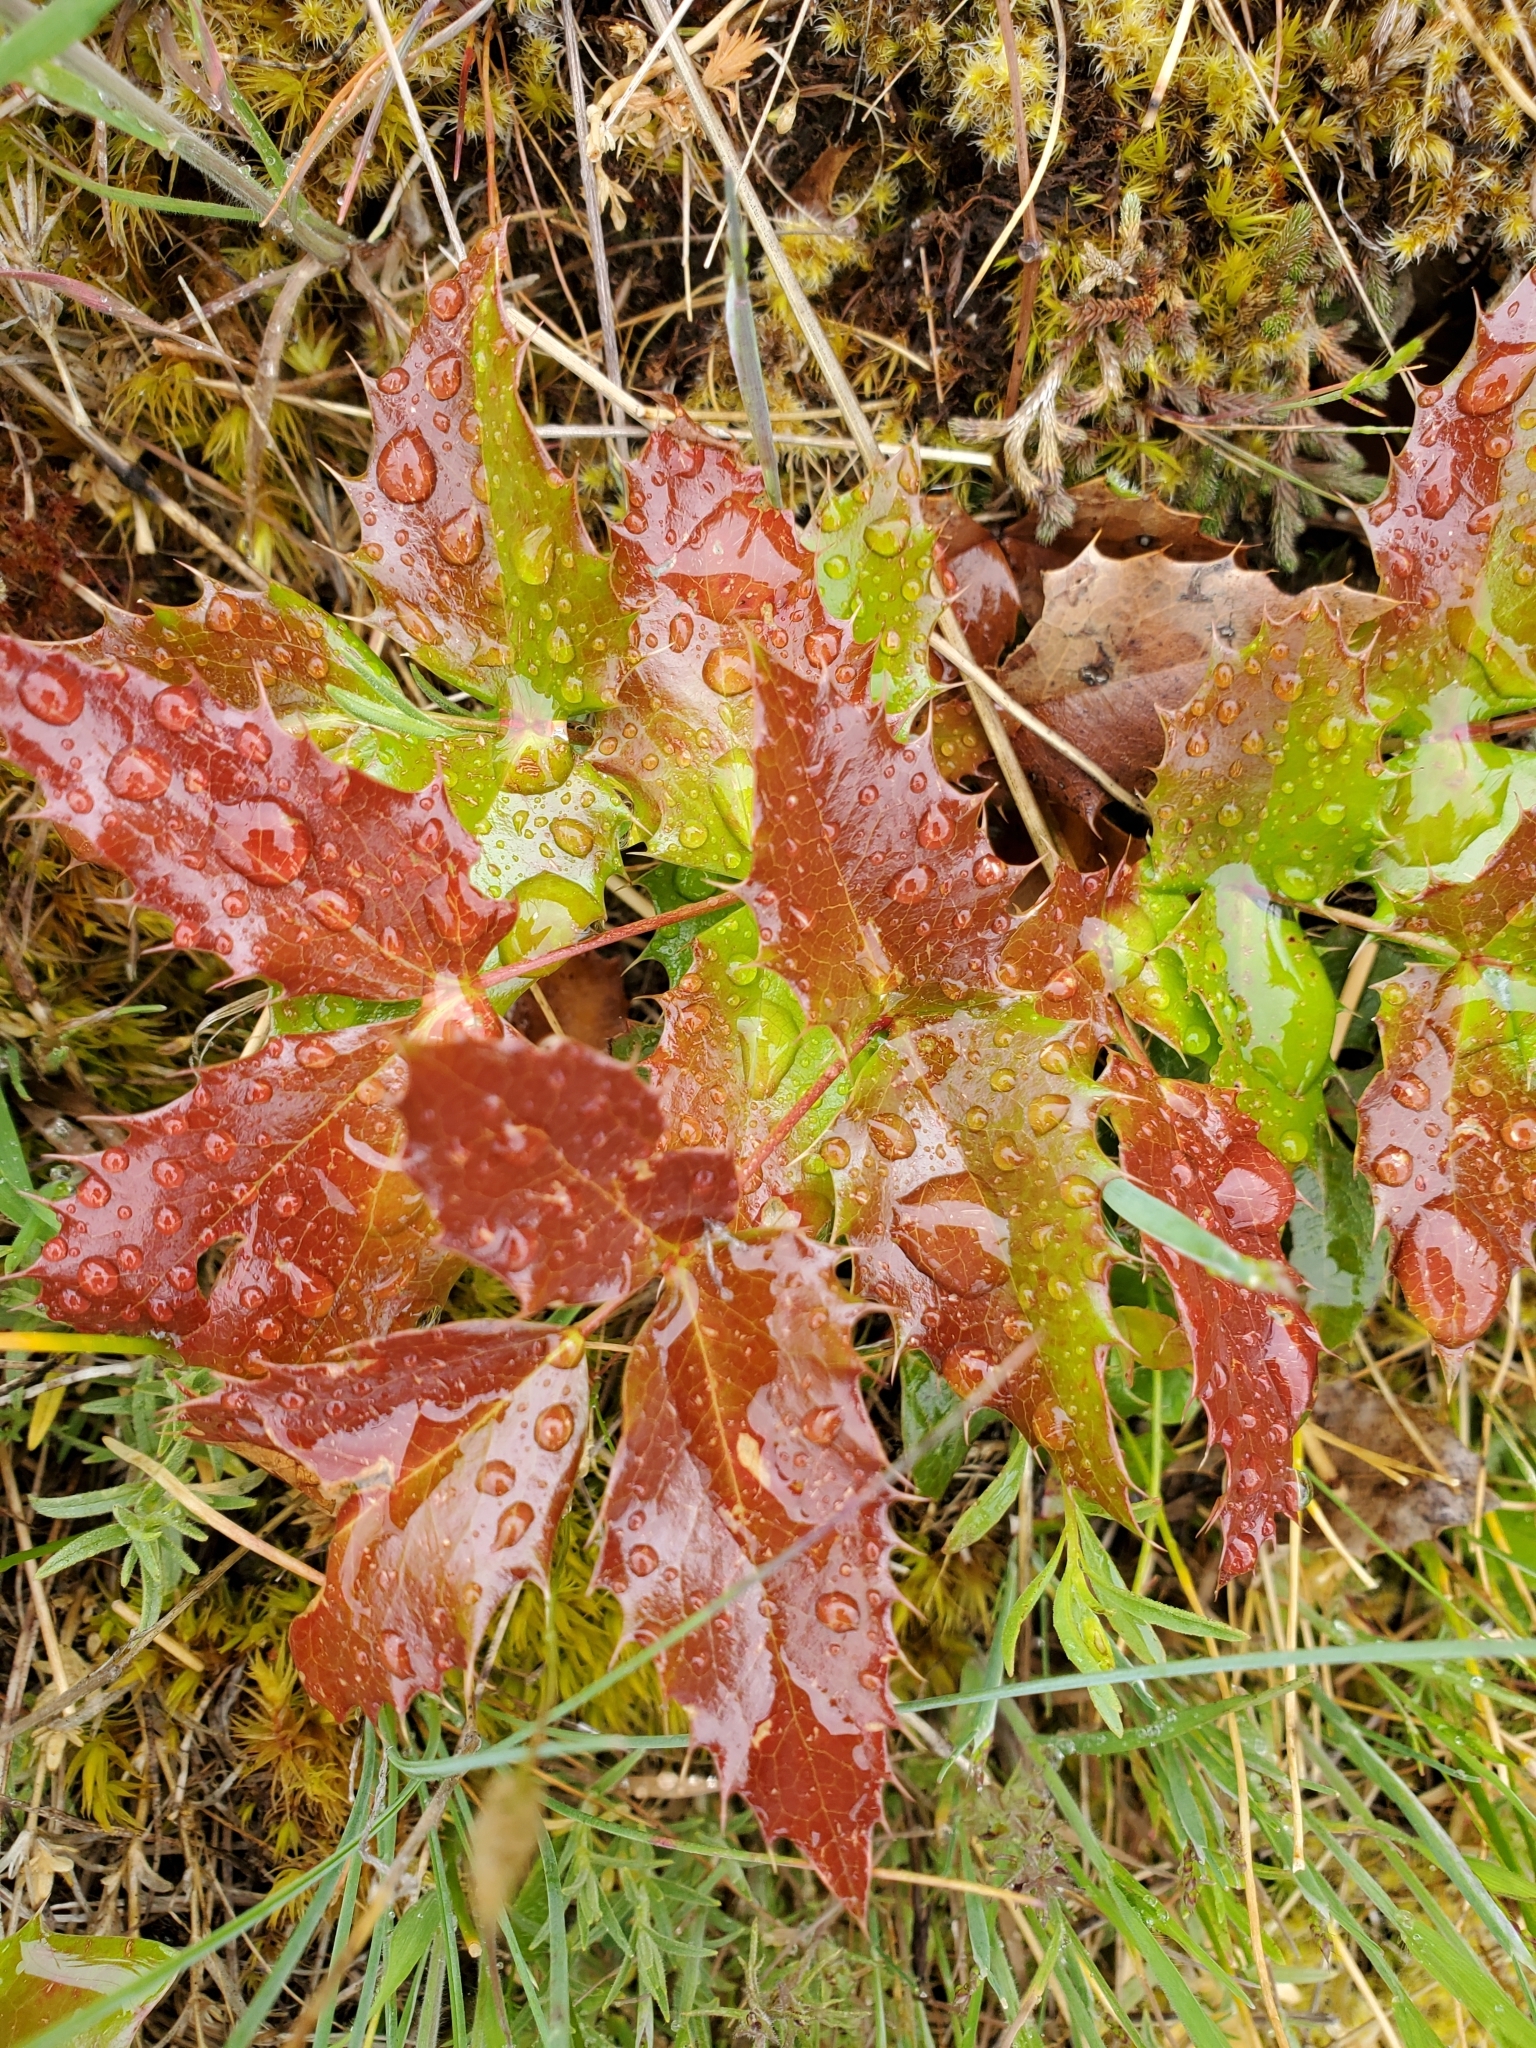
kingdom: Plantae
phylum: Tracheophyta
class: Magnoliopsida
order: Ranunculales
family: Berberidaceae
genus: Mahonia
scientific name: Mahonia aquifolium
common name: Oregon-grape
